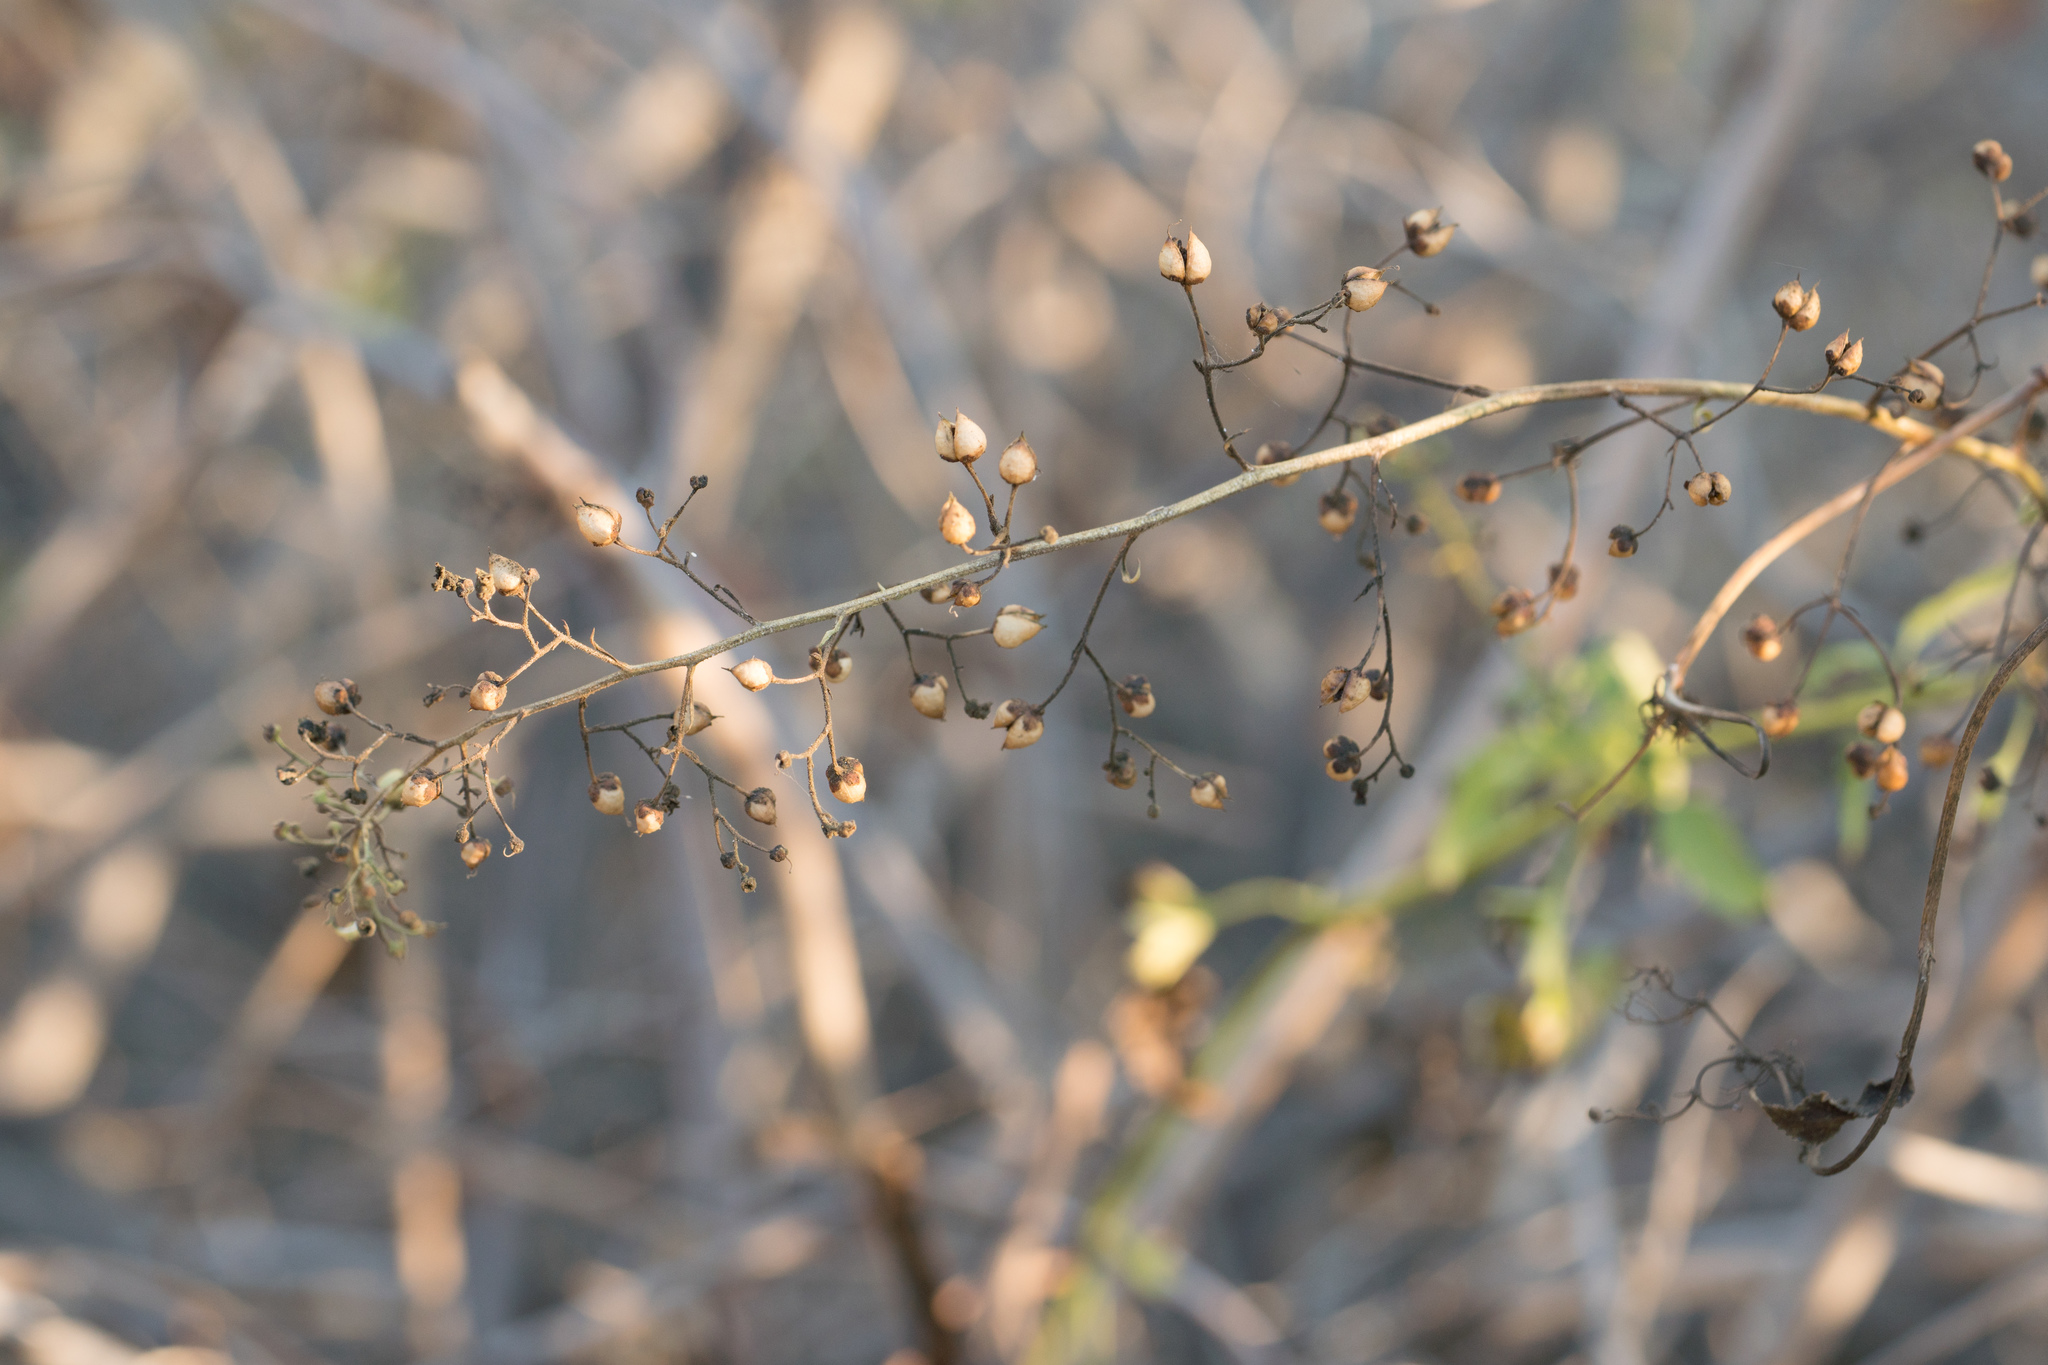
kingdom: Plantae
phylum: Tracheophyta
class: Magnoliopsida
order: Lamiales
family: Scrophulariaceae
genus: Scrophularia
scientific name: Scrophularia californica
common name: California figwort
